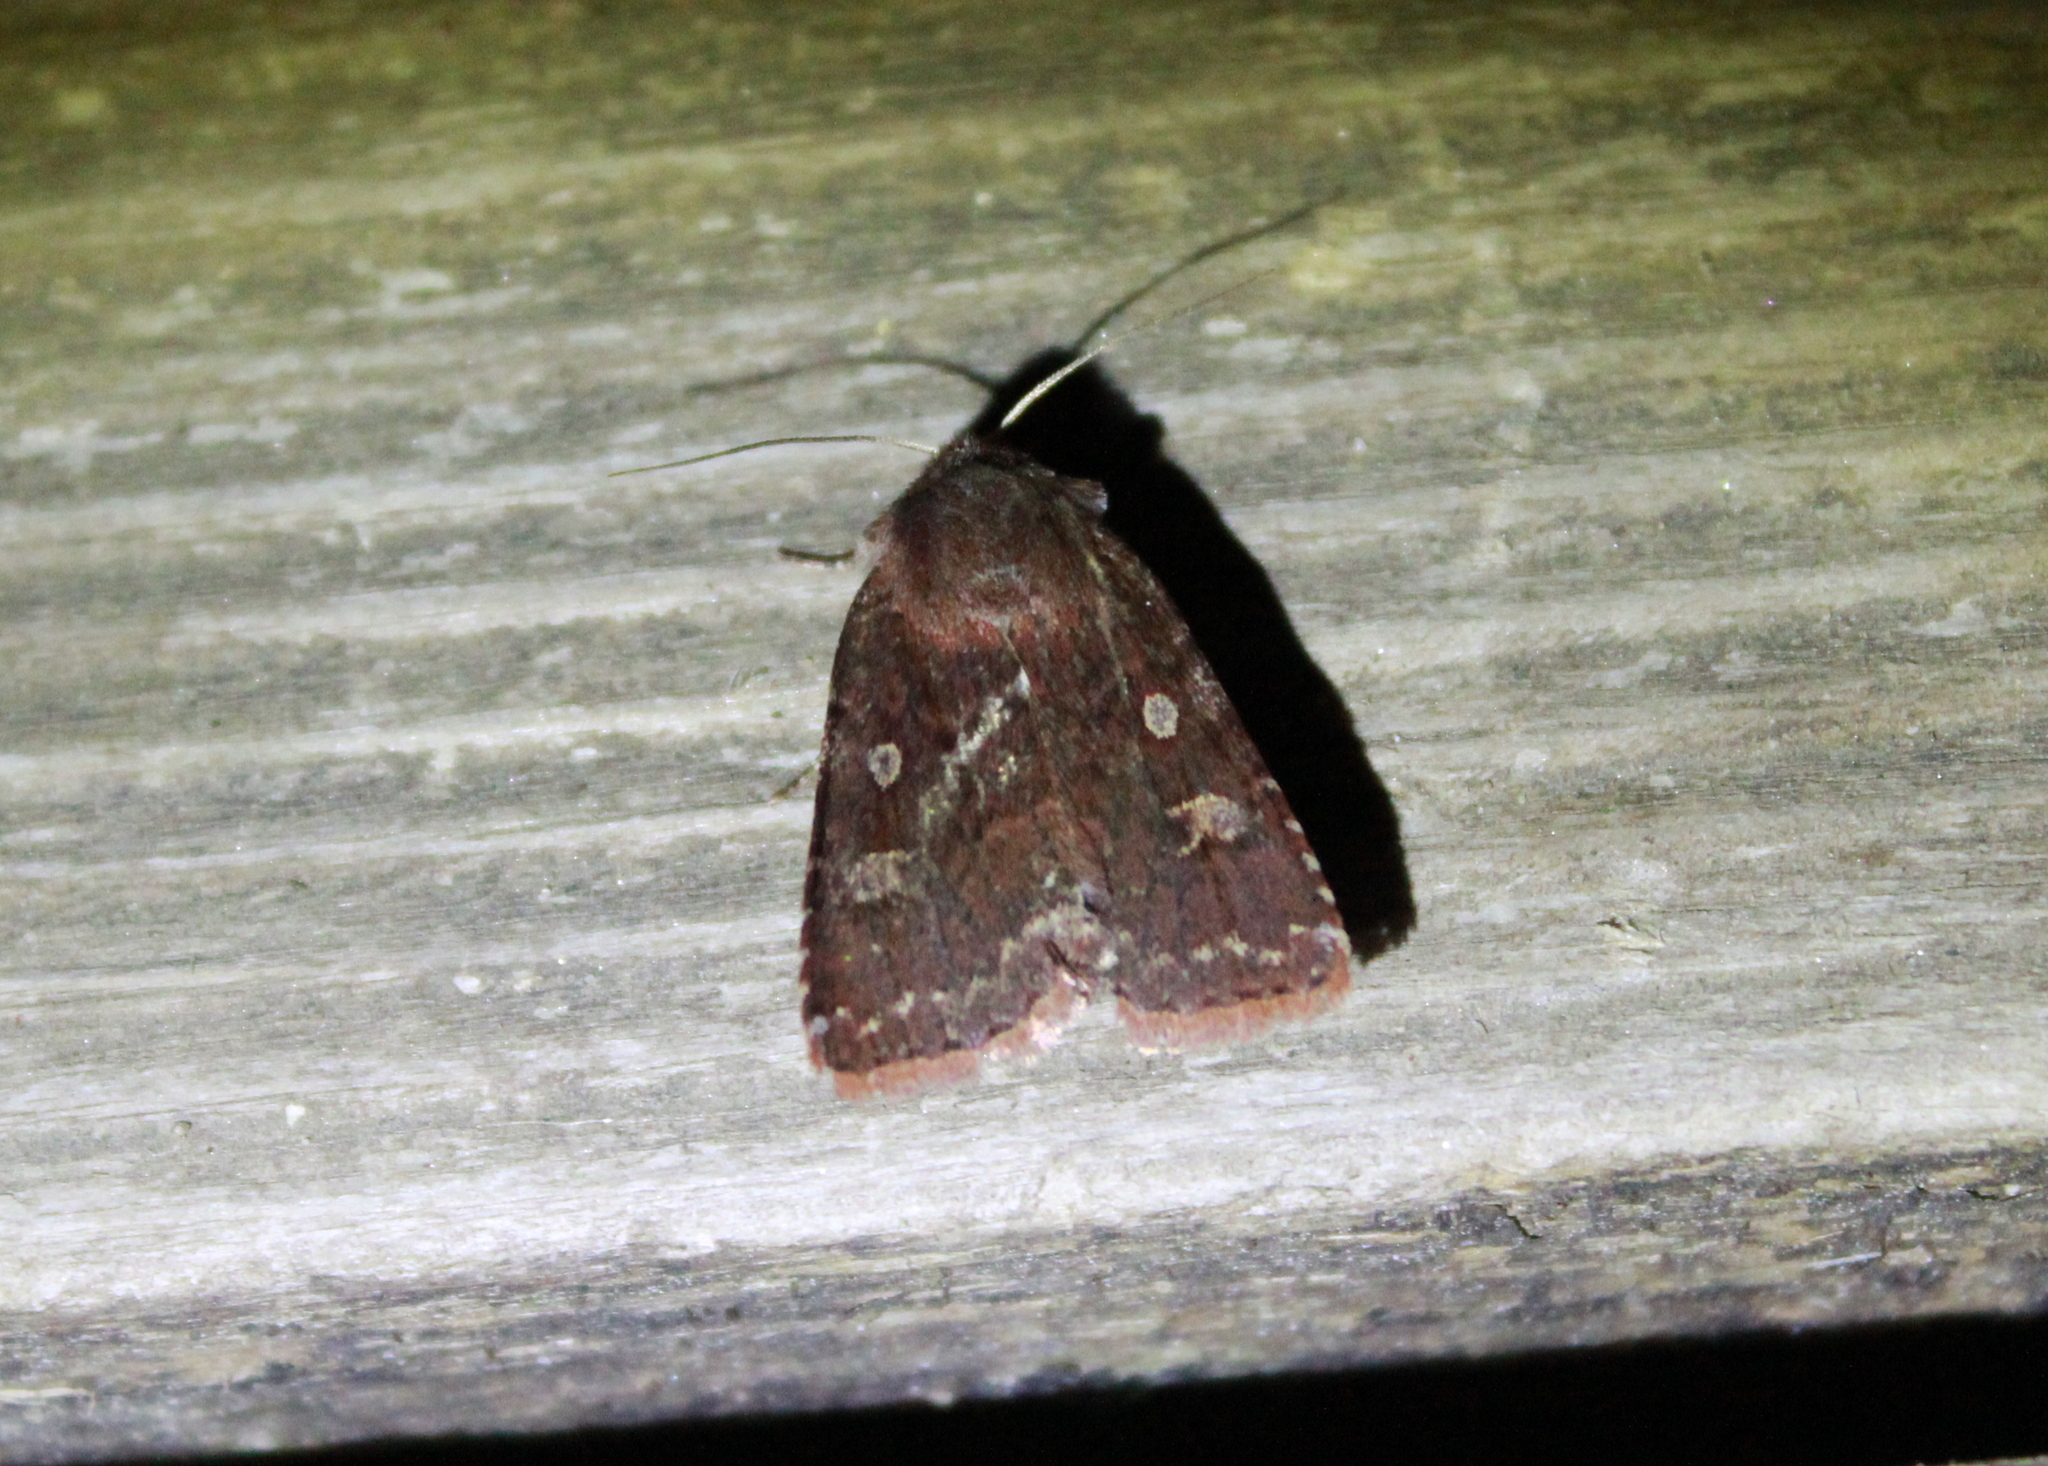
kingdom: Animalia
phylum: Arthropoda
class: Insecta
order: Lepidoptera
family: Noctuidae
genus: Cerastis
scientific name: Cerastis tenebrifera
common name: Reddish speckled dart
